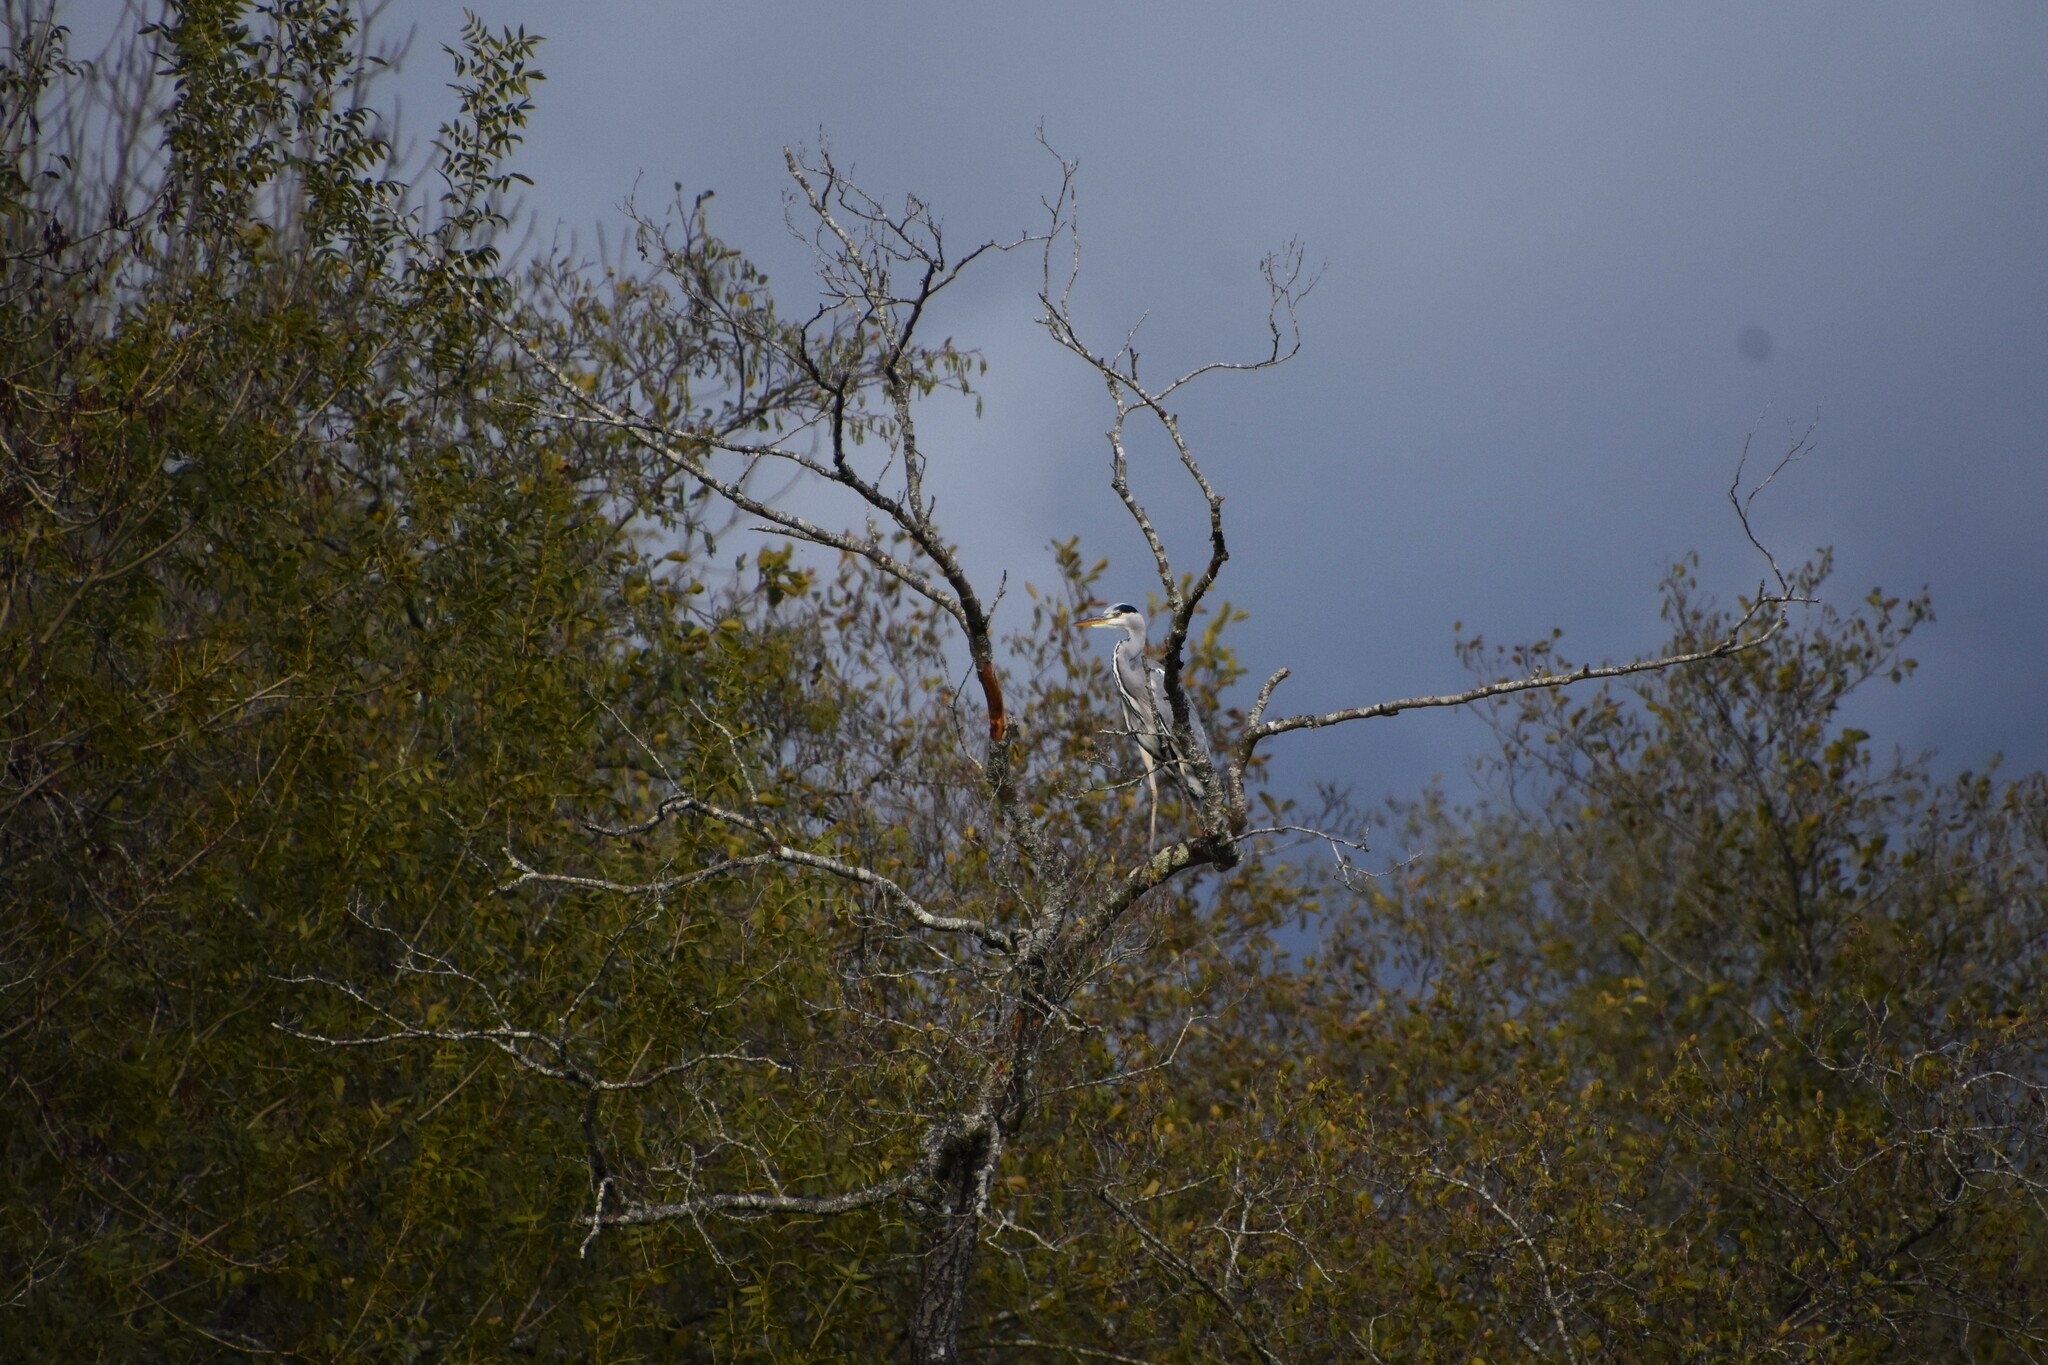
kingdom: Animalia
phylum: Chordata
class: Aves
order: Pelecaniformes
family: Ardeidae
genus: Ardea
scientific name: Ardea cinerea
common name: Grey heron
